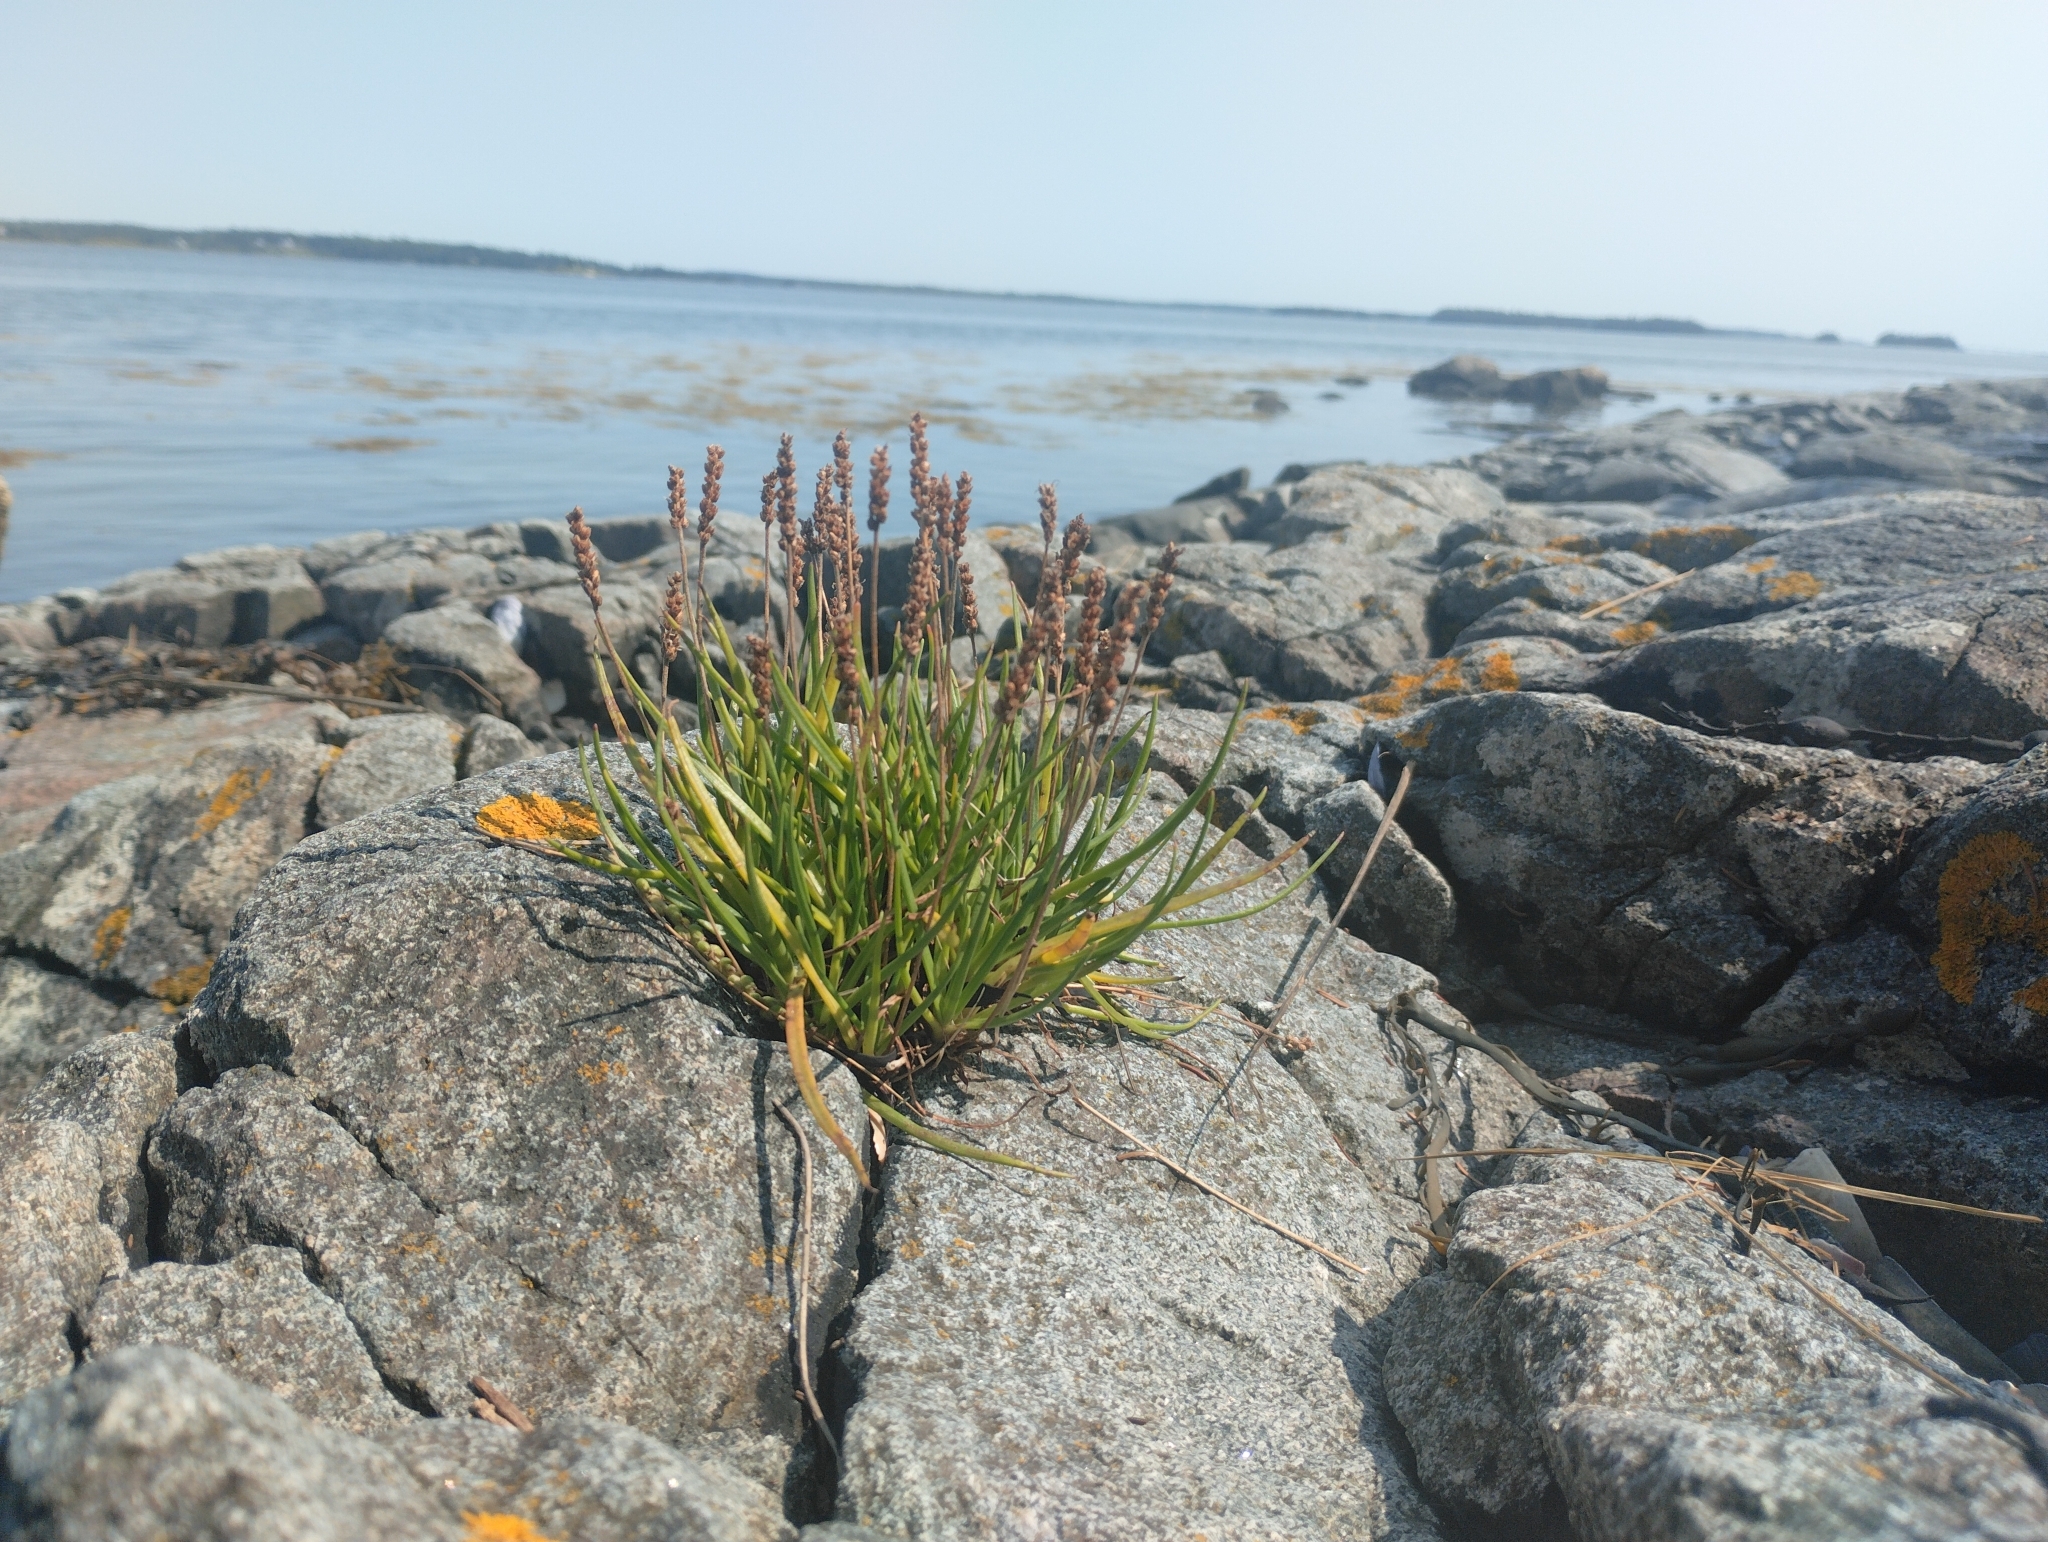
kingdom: Plantae
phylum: Tracheophyta
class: Magnoliopsida
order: Lamiales
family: Plantaginaceae
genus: Plantago
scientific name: Plantago maritima
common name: Sea plantain
